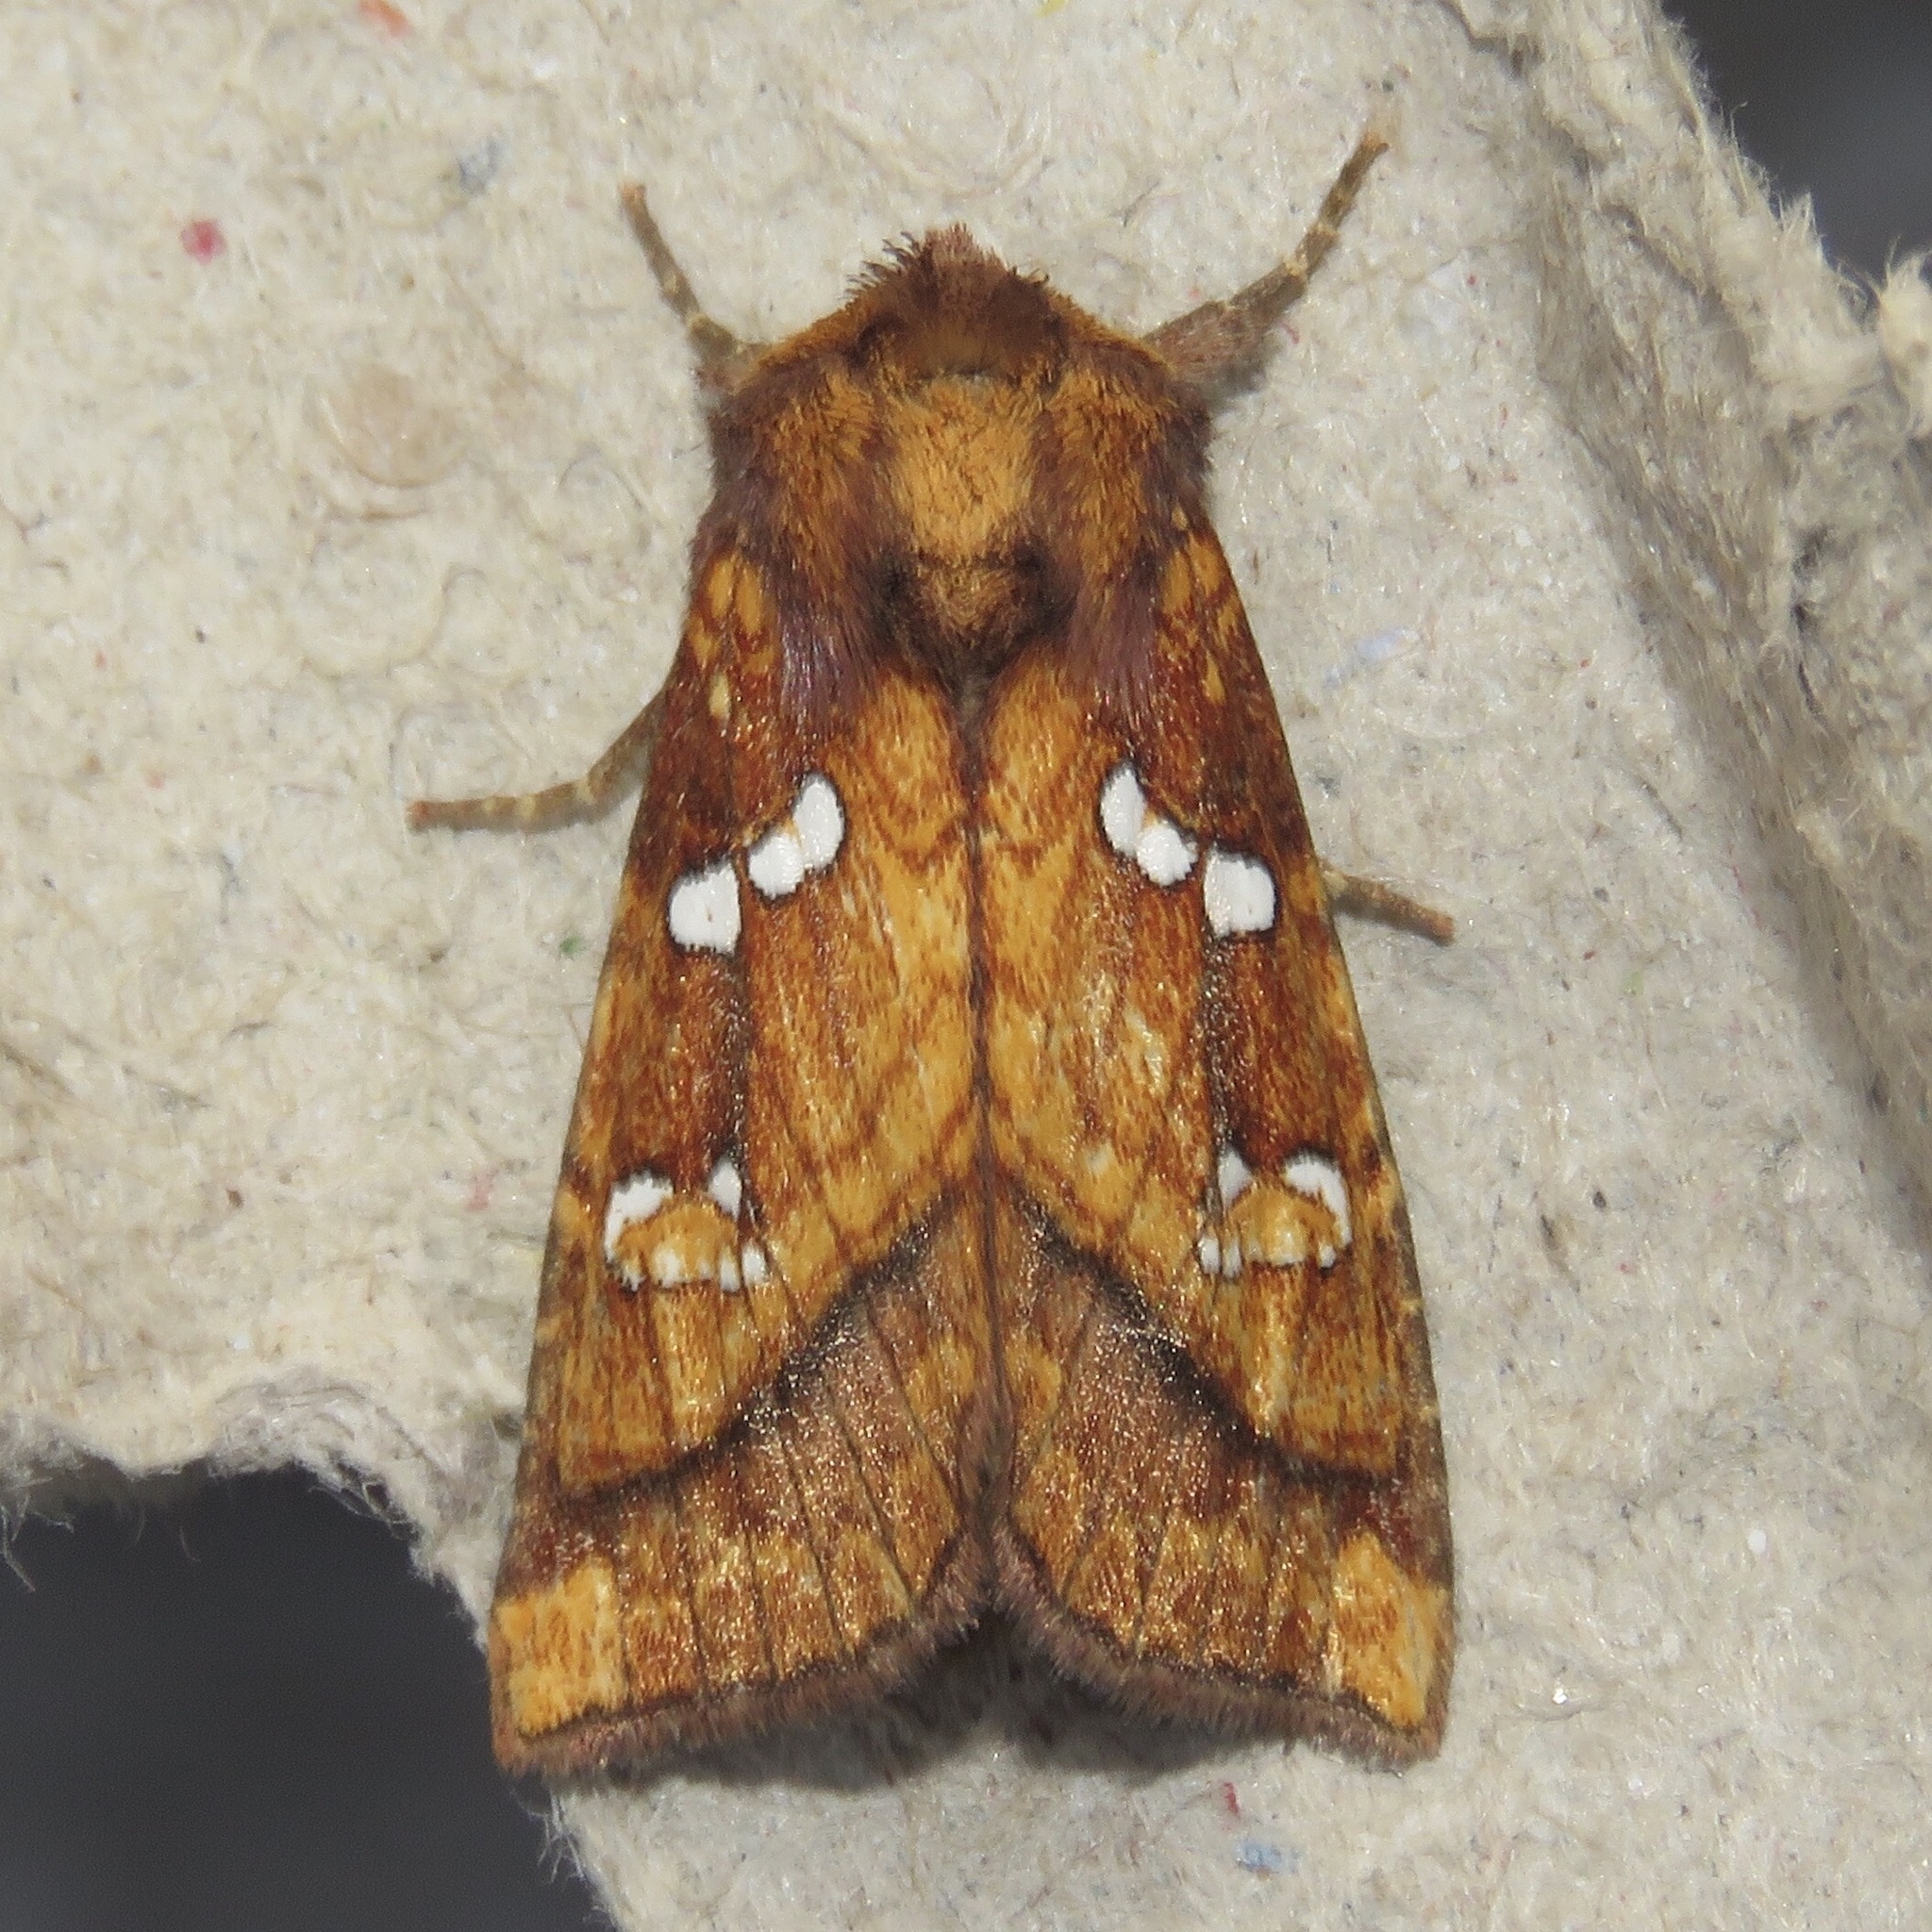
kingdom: Animalia
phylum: Arthropoda
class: Insecta
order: Lepidoptera
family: Noctuidae
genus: Papaipema
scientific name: Papaipema pterisii
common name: Bracken borer moth
